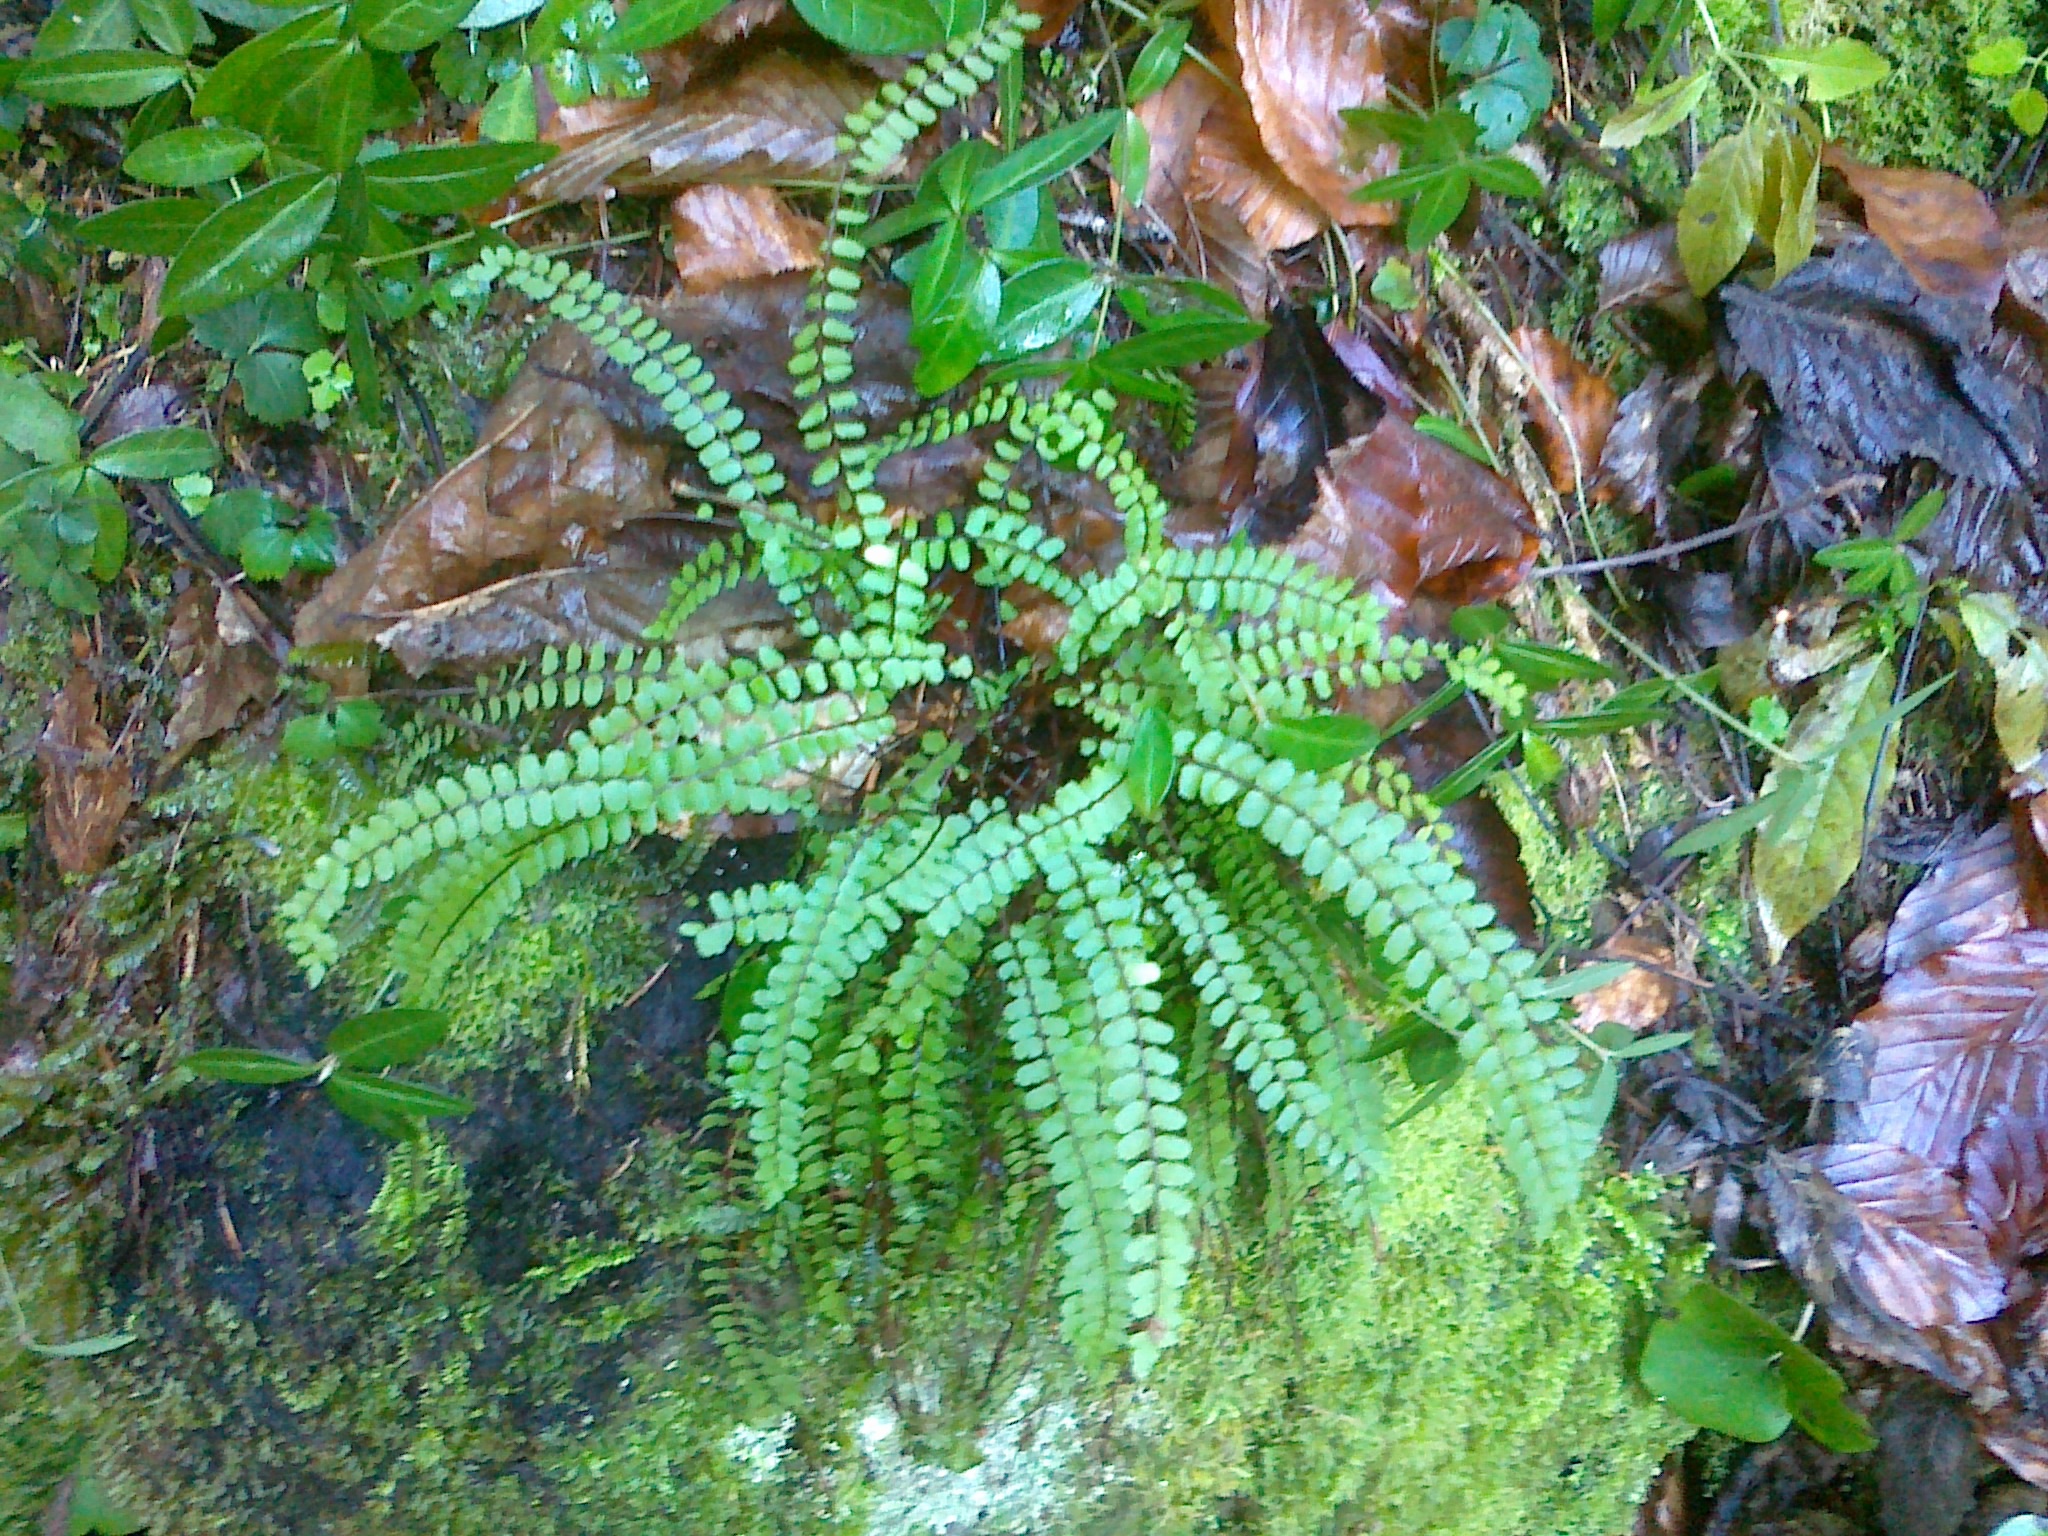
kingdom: Plantae
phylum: Tracheophyta
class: Polypodiopsida
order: Polypodiales
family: Aspleniaceae
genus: Asplenium
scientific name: Asplenium trichomanes
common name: Maidenhair spleenwort
